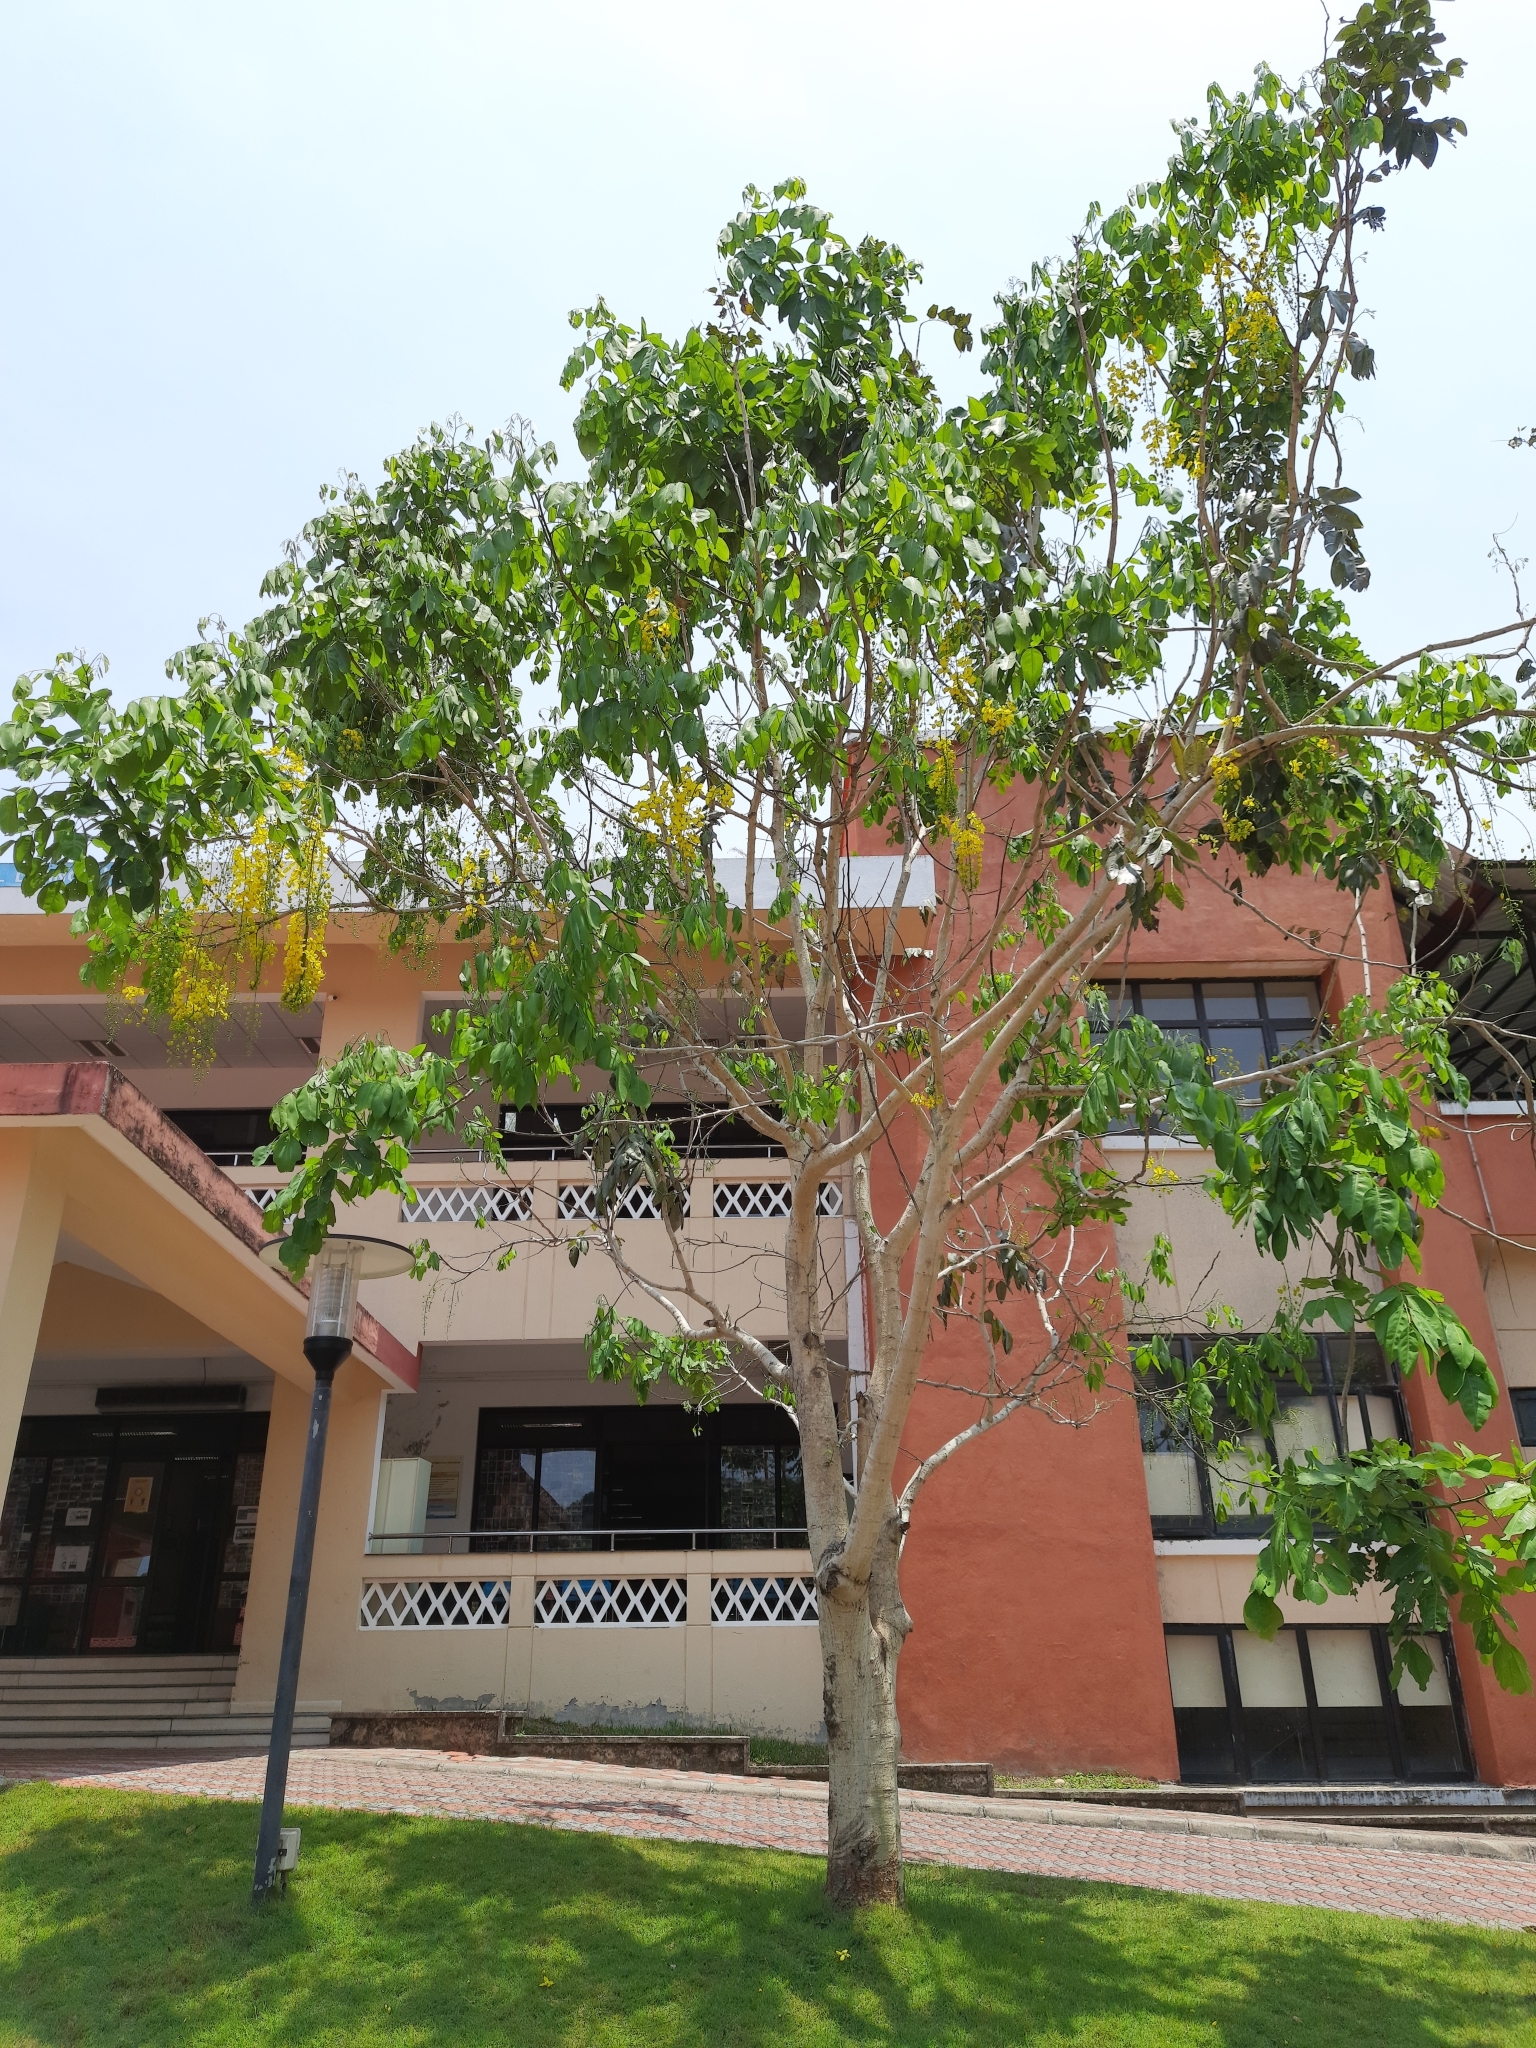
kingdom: Plantae
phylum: Tracheophyta
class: Magnoliopsida
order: Fabales
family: Fabaceae
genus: Cassia
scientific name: Cassia fistula
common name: Golden shower
